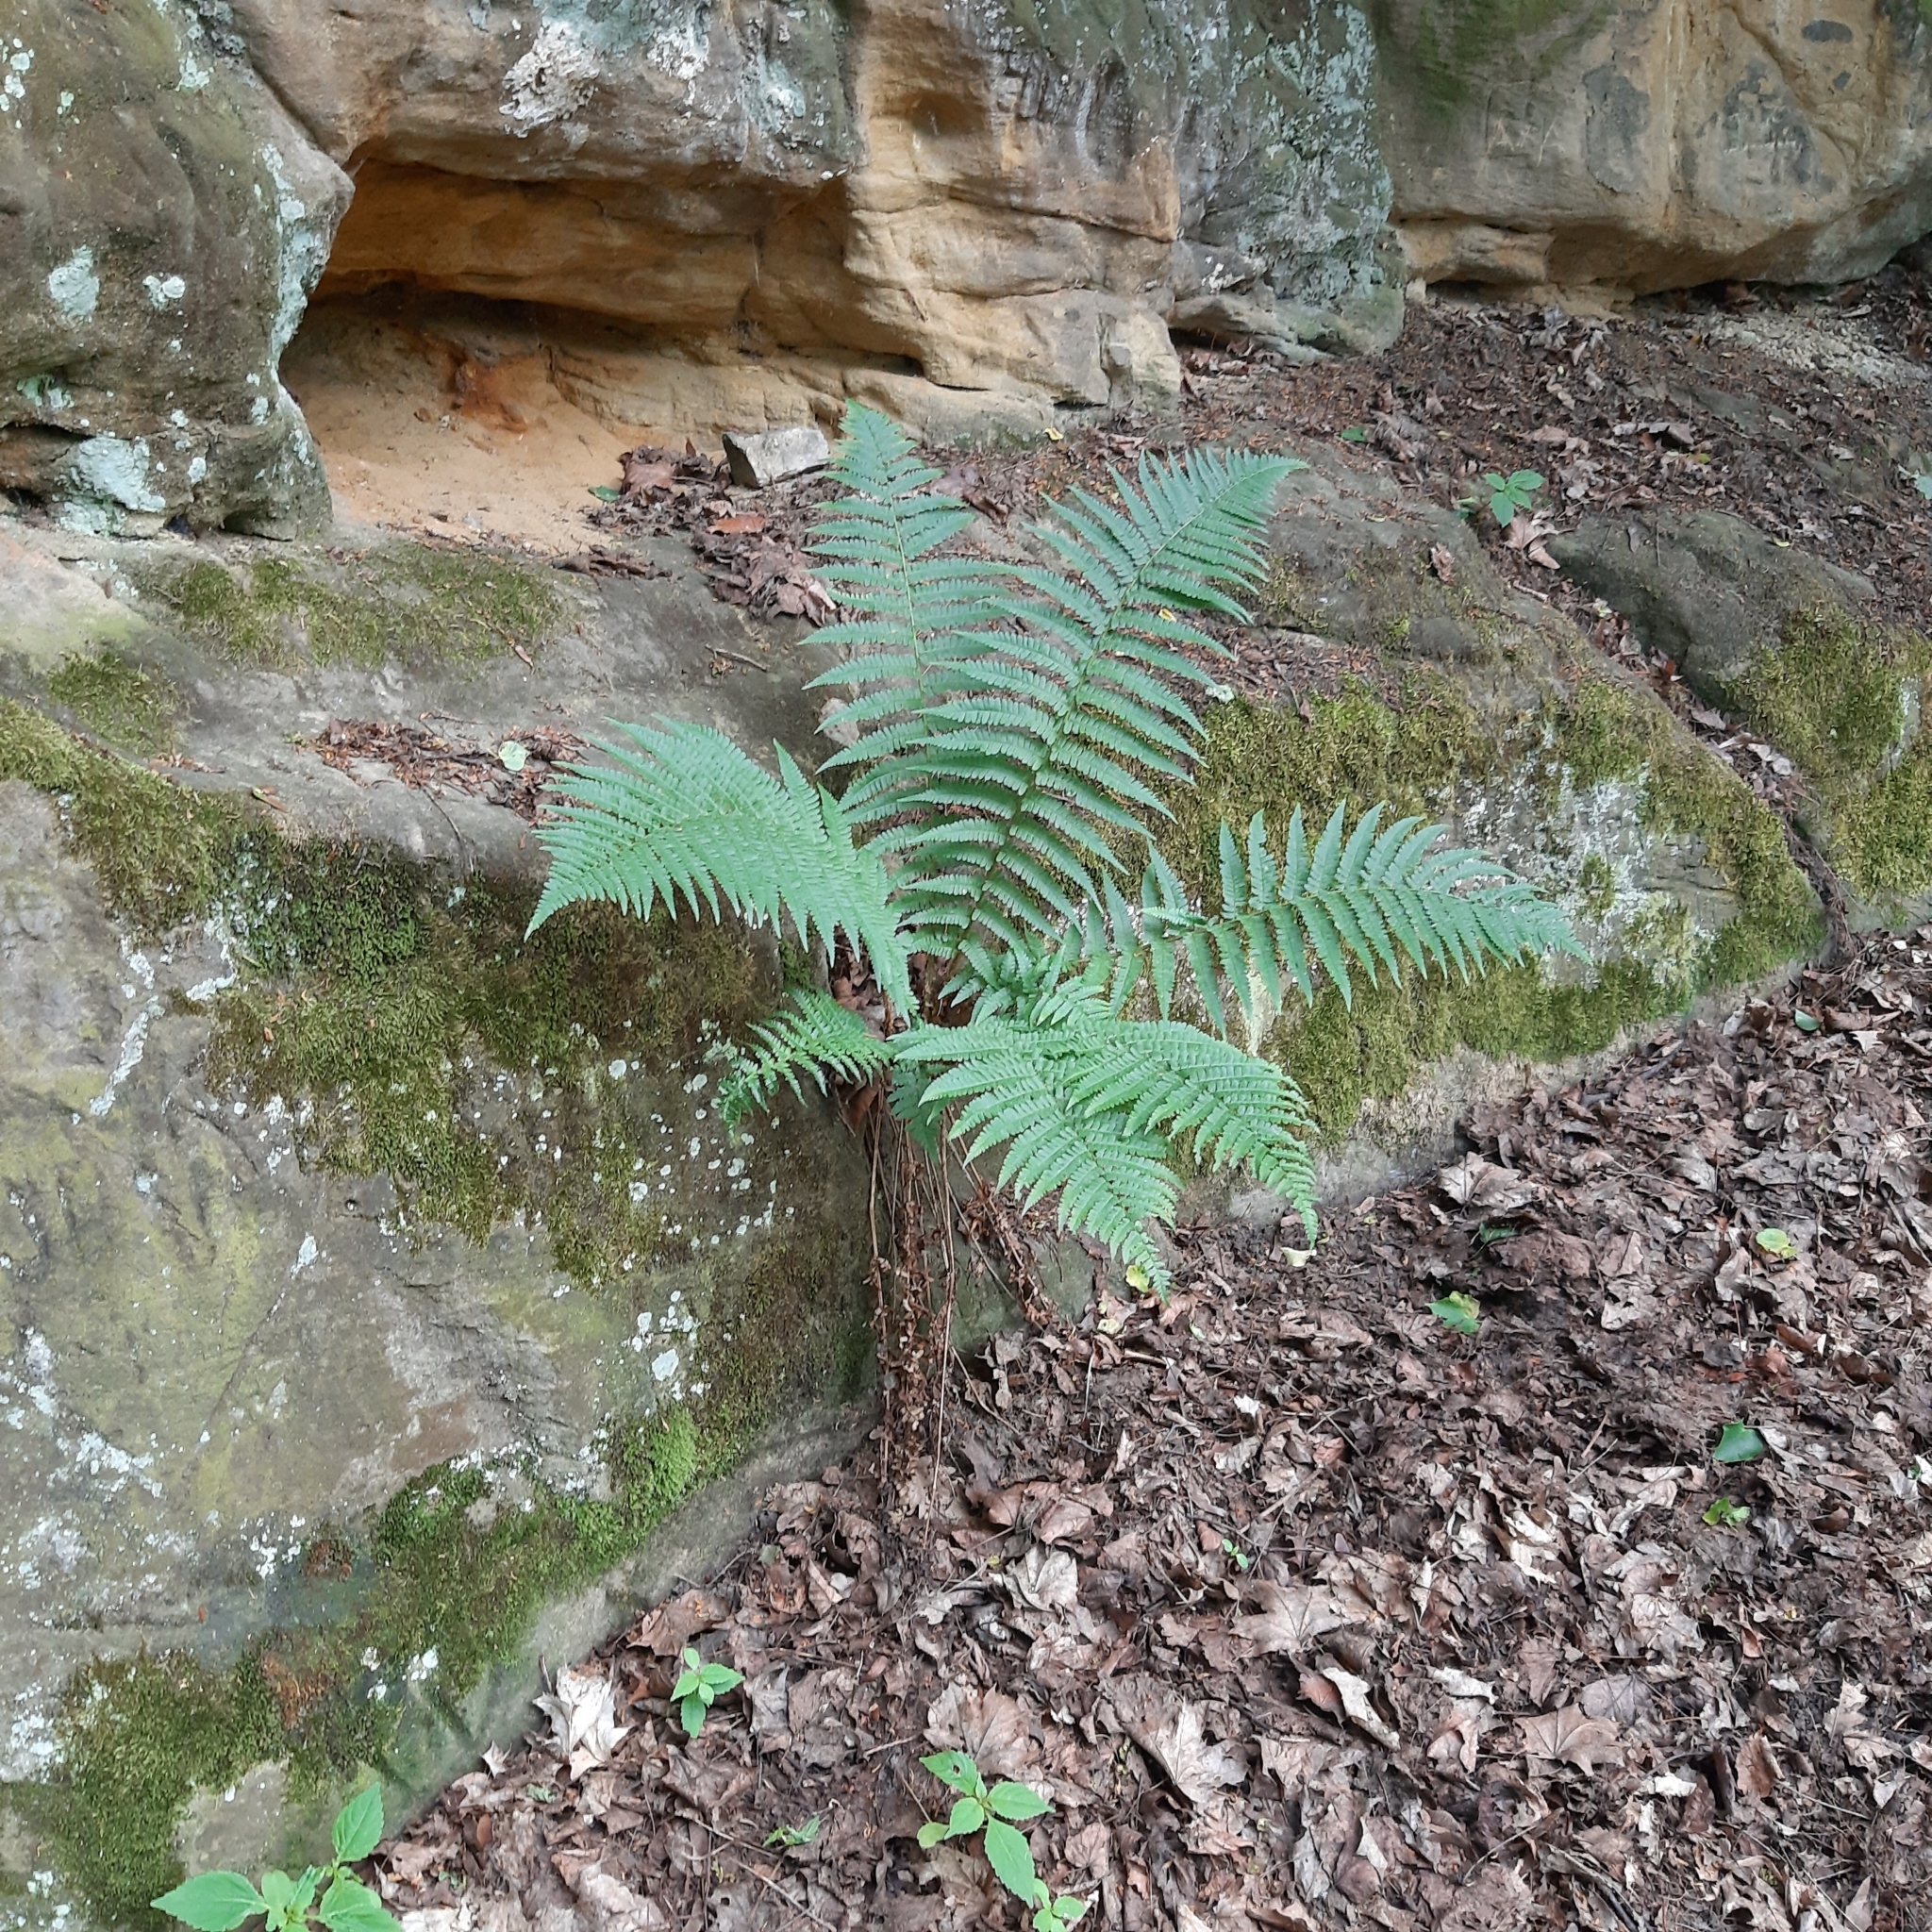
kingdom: Plantae
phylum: Tracheophyta
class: Polypodiopsida
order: Polypodiales
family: Dryopteridaceae
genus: Dryopteris
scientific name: Dryopteris filix-mas
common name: Male fern
